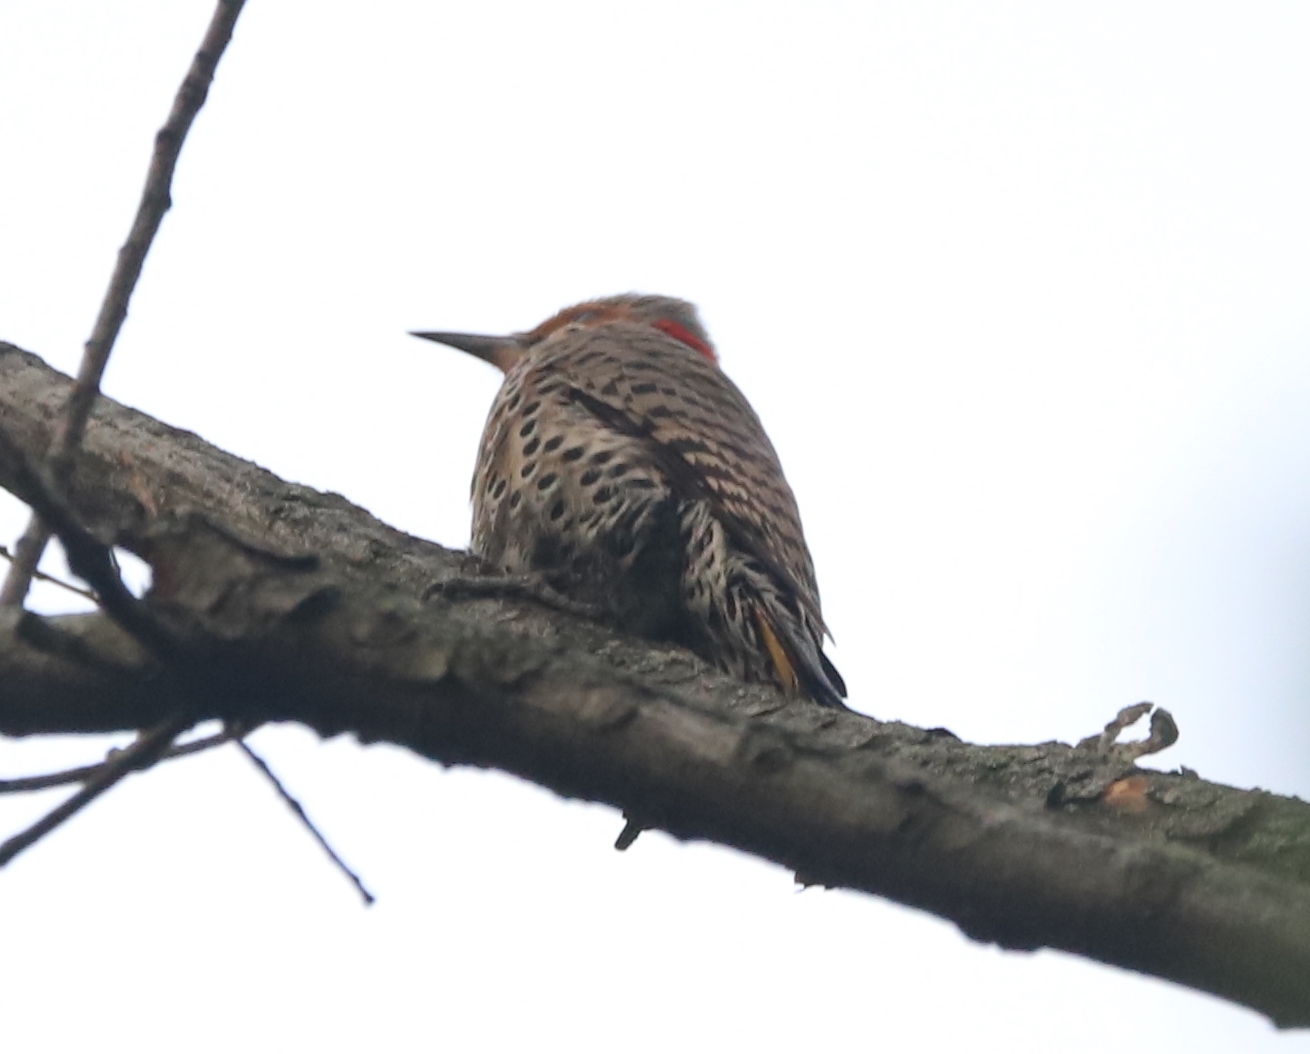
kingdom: Animalia
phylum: Chordata
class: Aves
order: Piciformes
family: Picidae
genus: Colaptes
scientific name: Colaptes auratus
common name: Northern flicker
